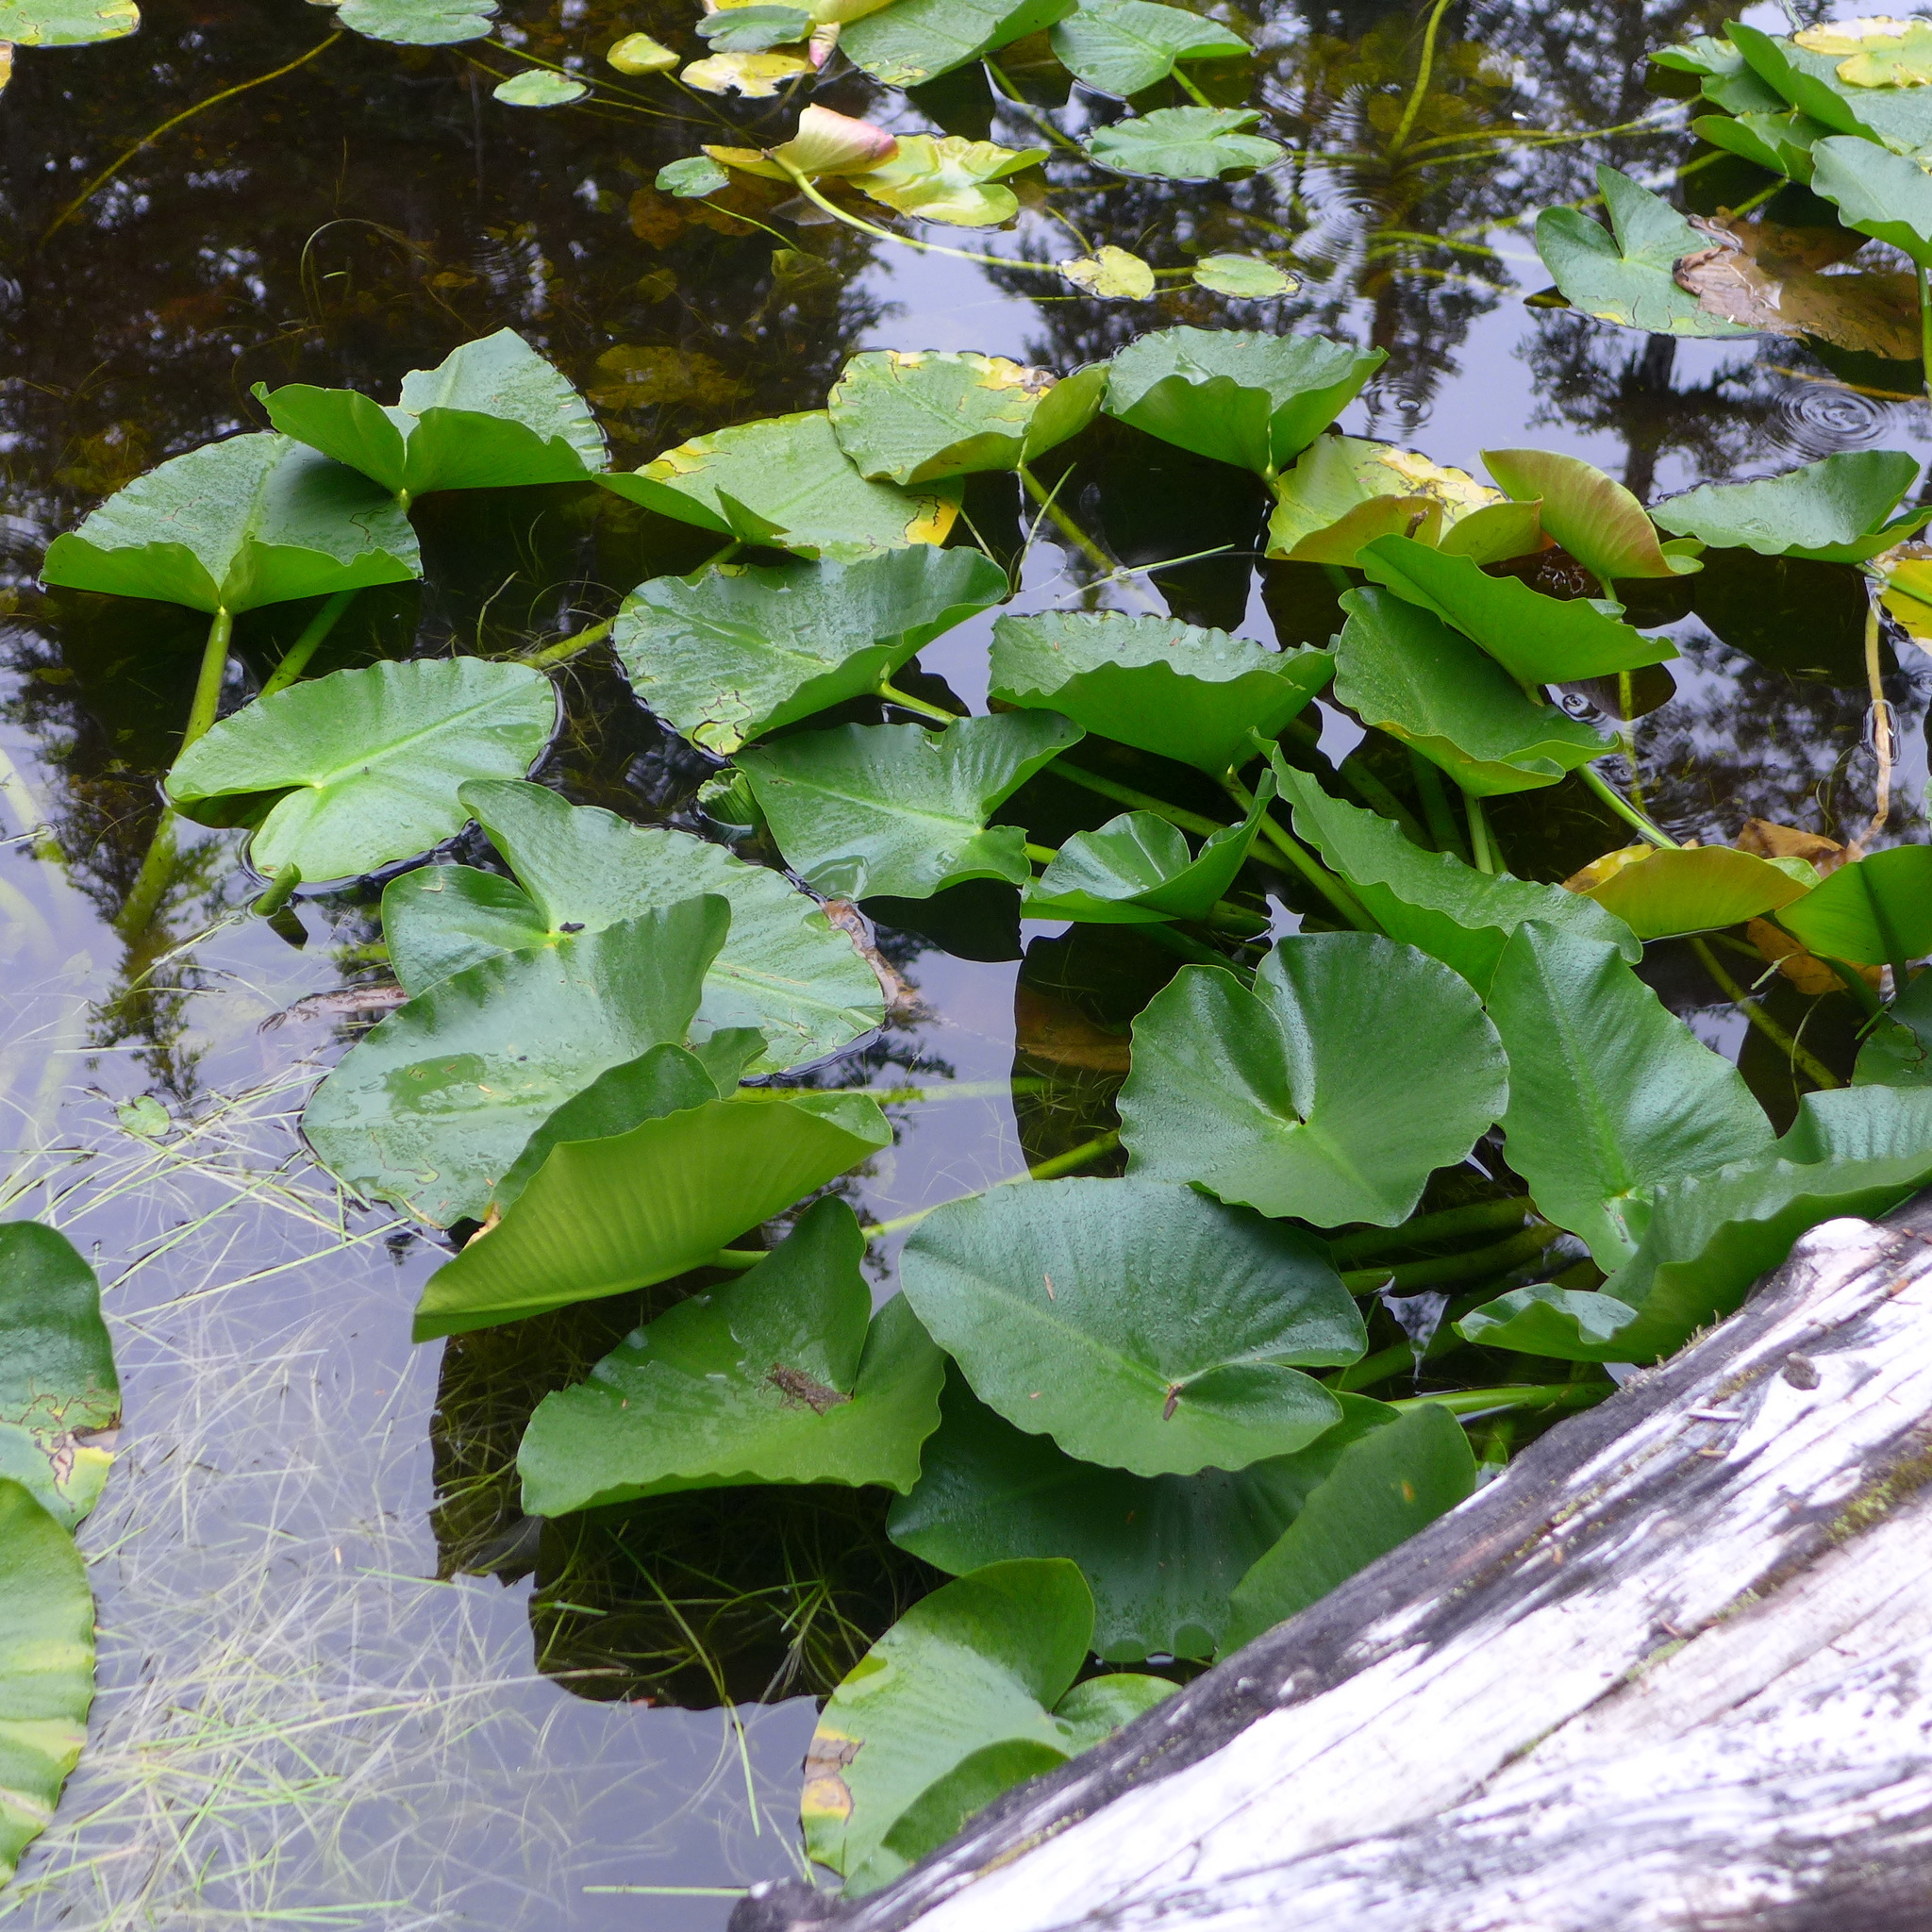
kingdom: Plantae
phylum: Tracheophyta
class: Magnoliopsida
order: Nymphaeales
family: Nymphaeaceae
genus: Nuphar
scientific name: Nuphar polysepala
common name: Rocky mountain cow-lily
